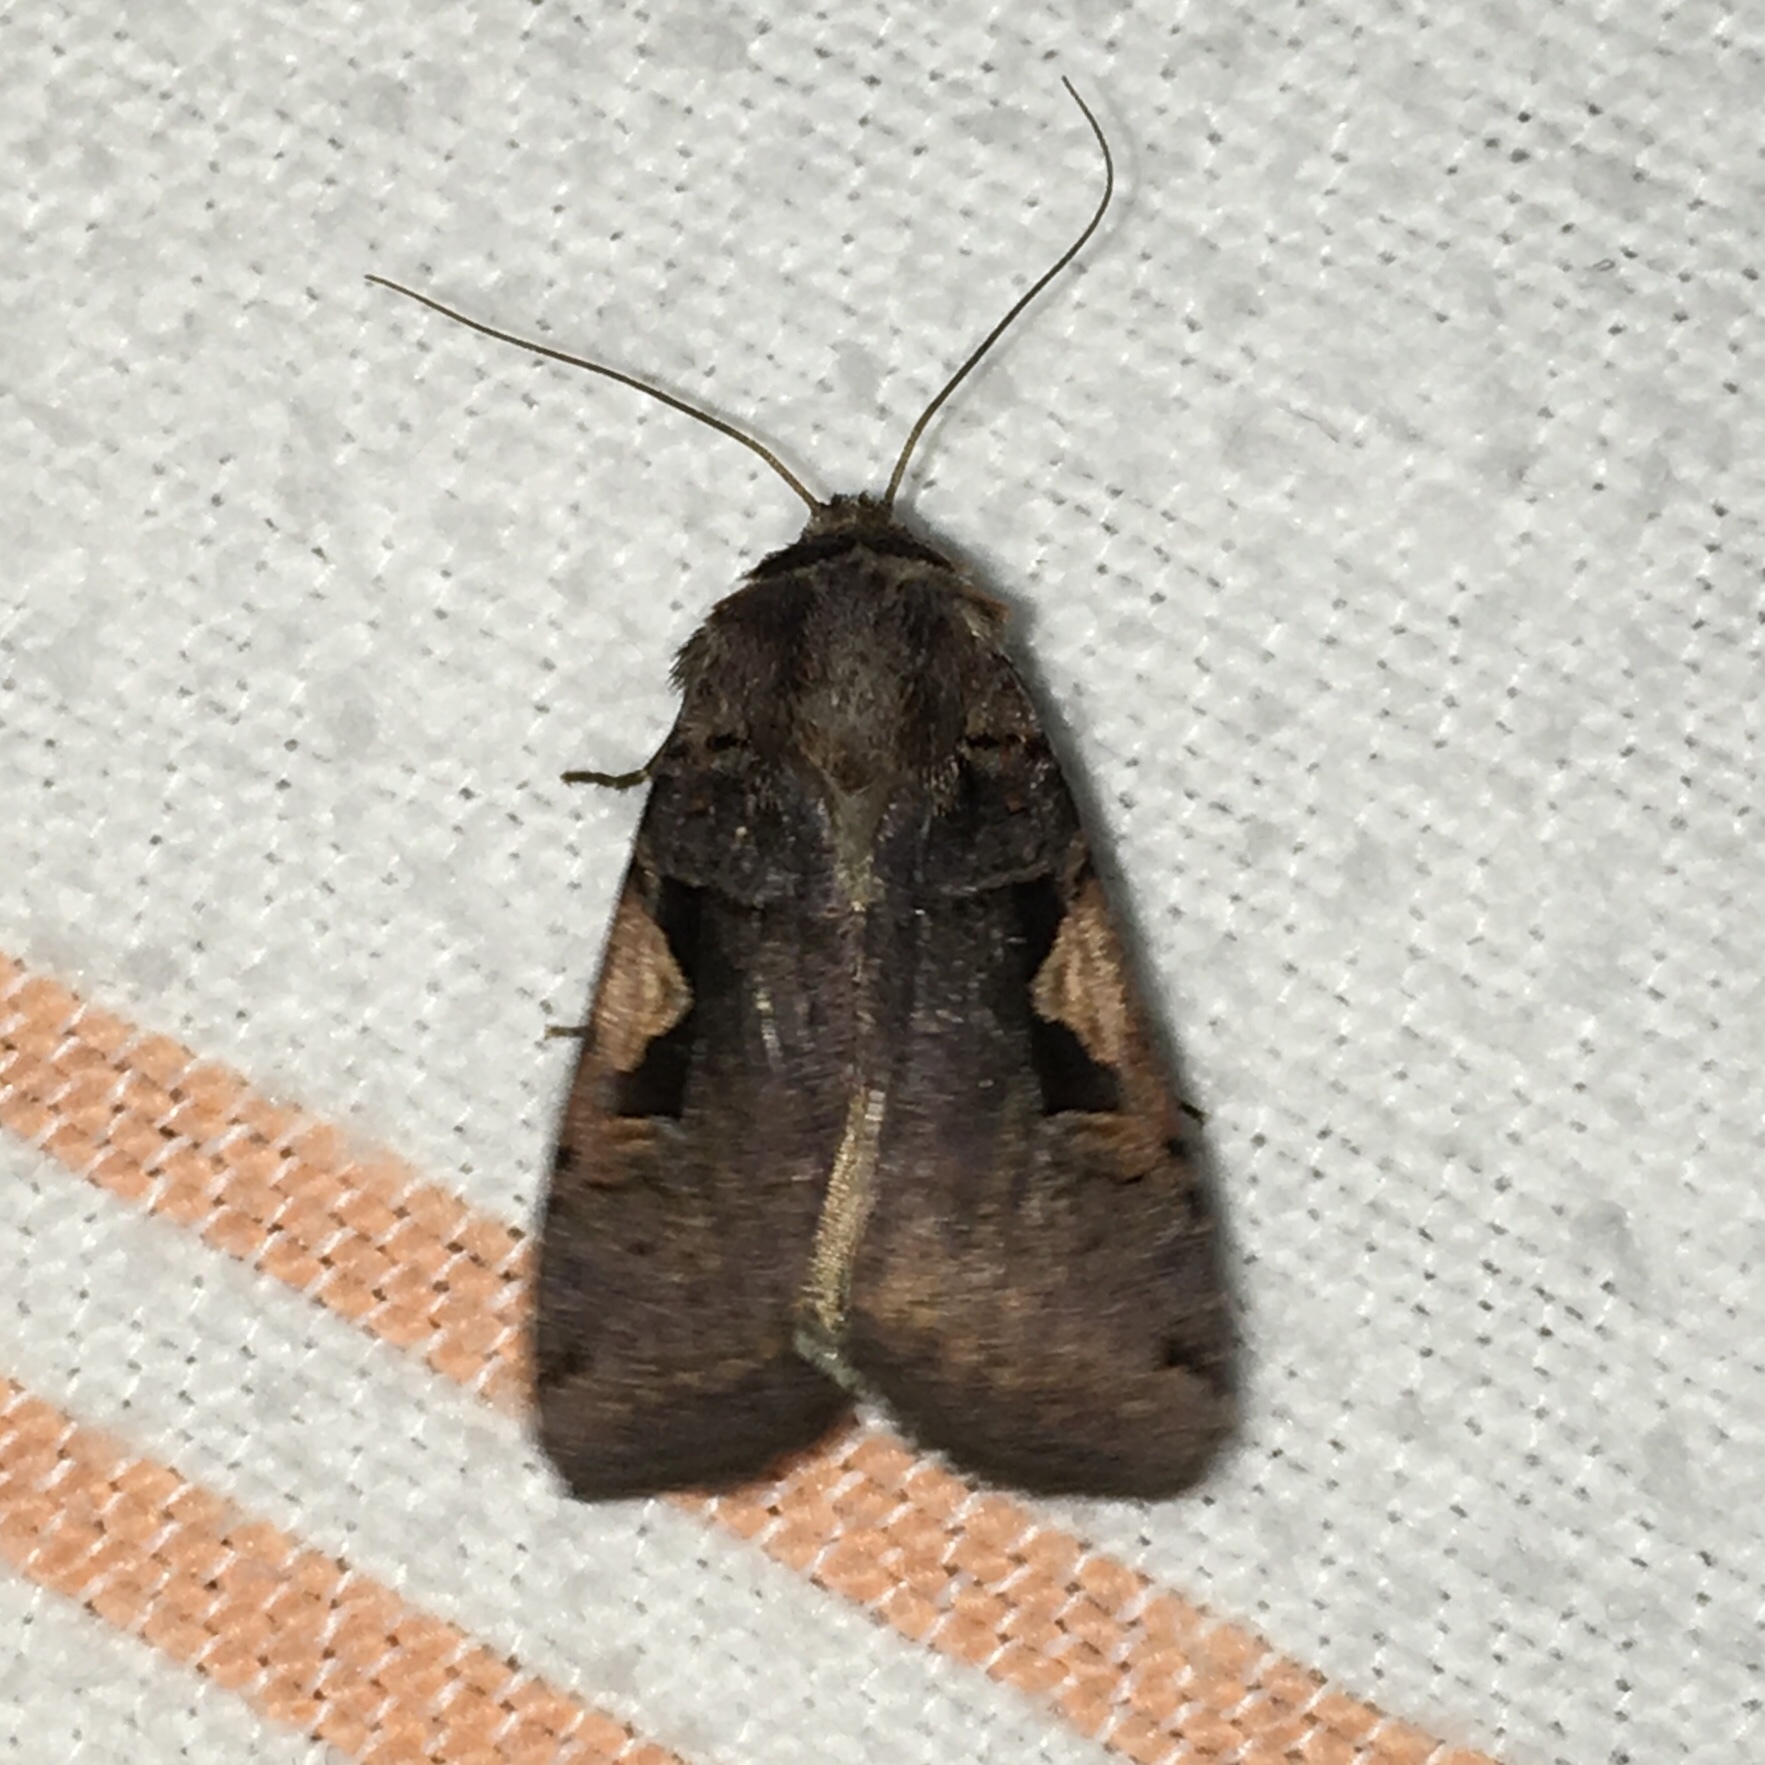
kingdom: Animalia
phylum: Arthropoda
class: Insecta
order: Lepidoptera
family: Noctuidae
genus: Xestia
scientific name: Xestia dolosa
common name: Cutworm moth
